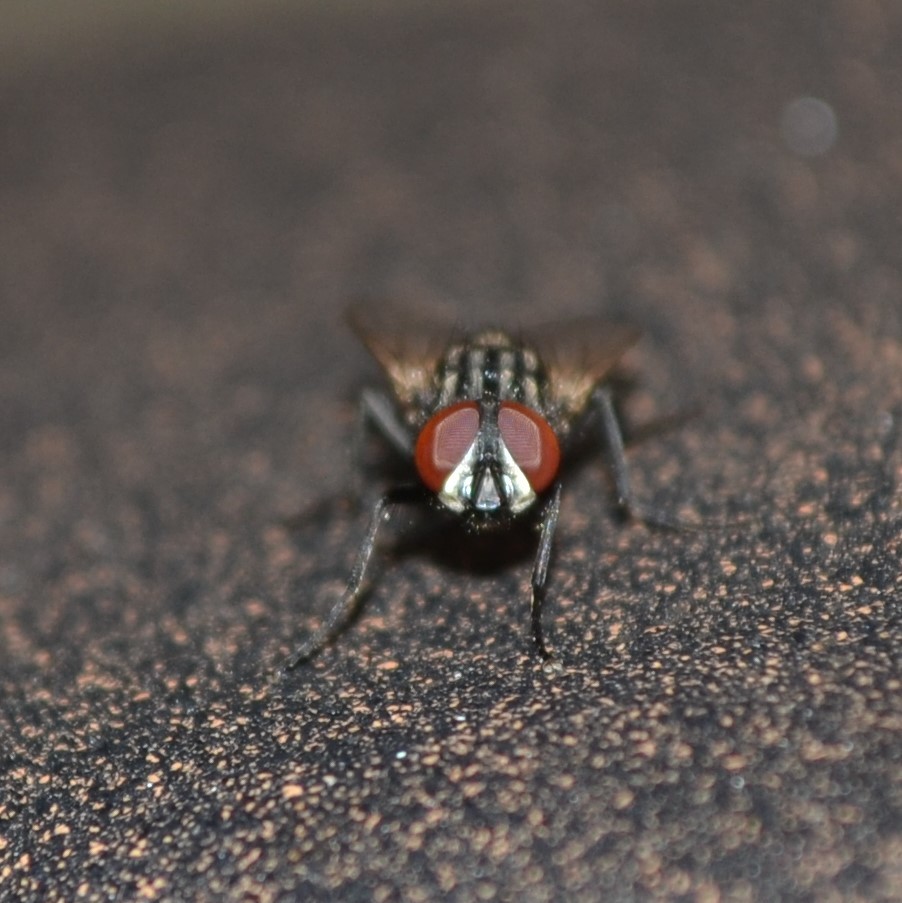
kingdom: Animalia
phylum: Arthropoda
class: Insecta
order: Diptera
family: Muscidae
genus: Musca
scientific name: Musca domestica
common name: House fly
